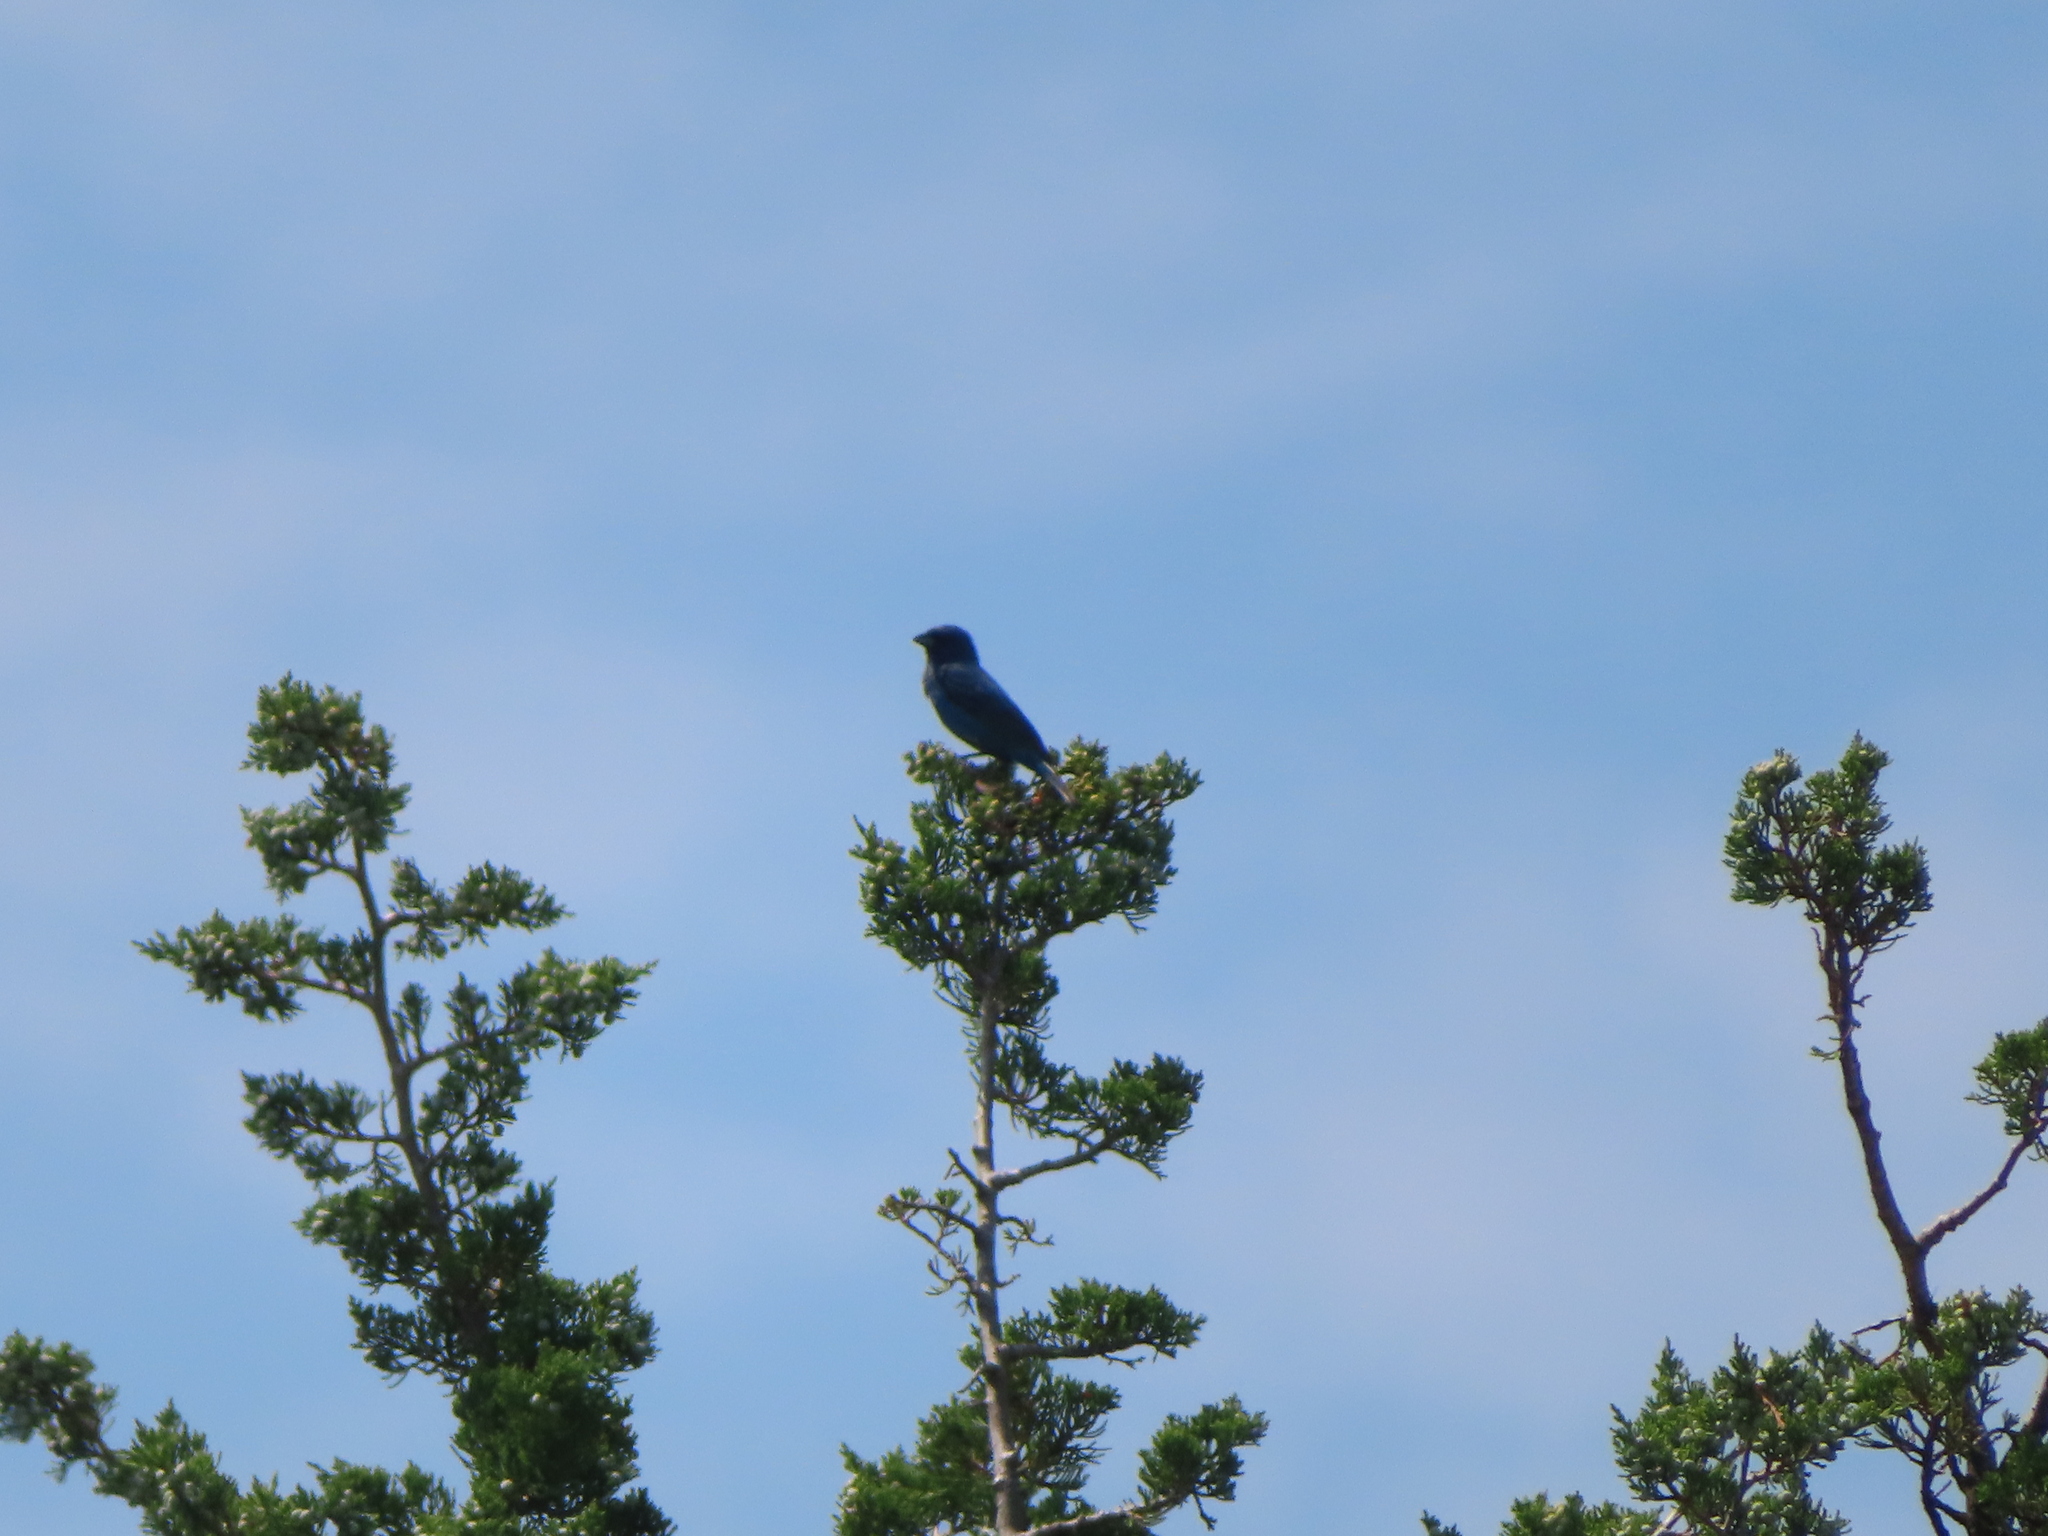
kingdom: Animalia
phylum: Chordata
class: Aves
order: Passeriformes
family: Cardinalidae
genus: Passerina
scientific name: Passerina cyanea
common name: Indigo bunting
